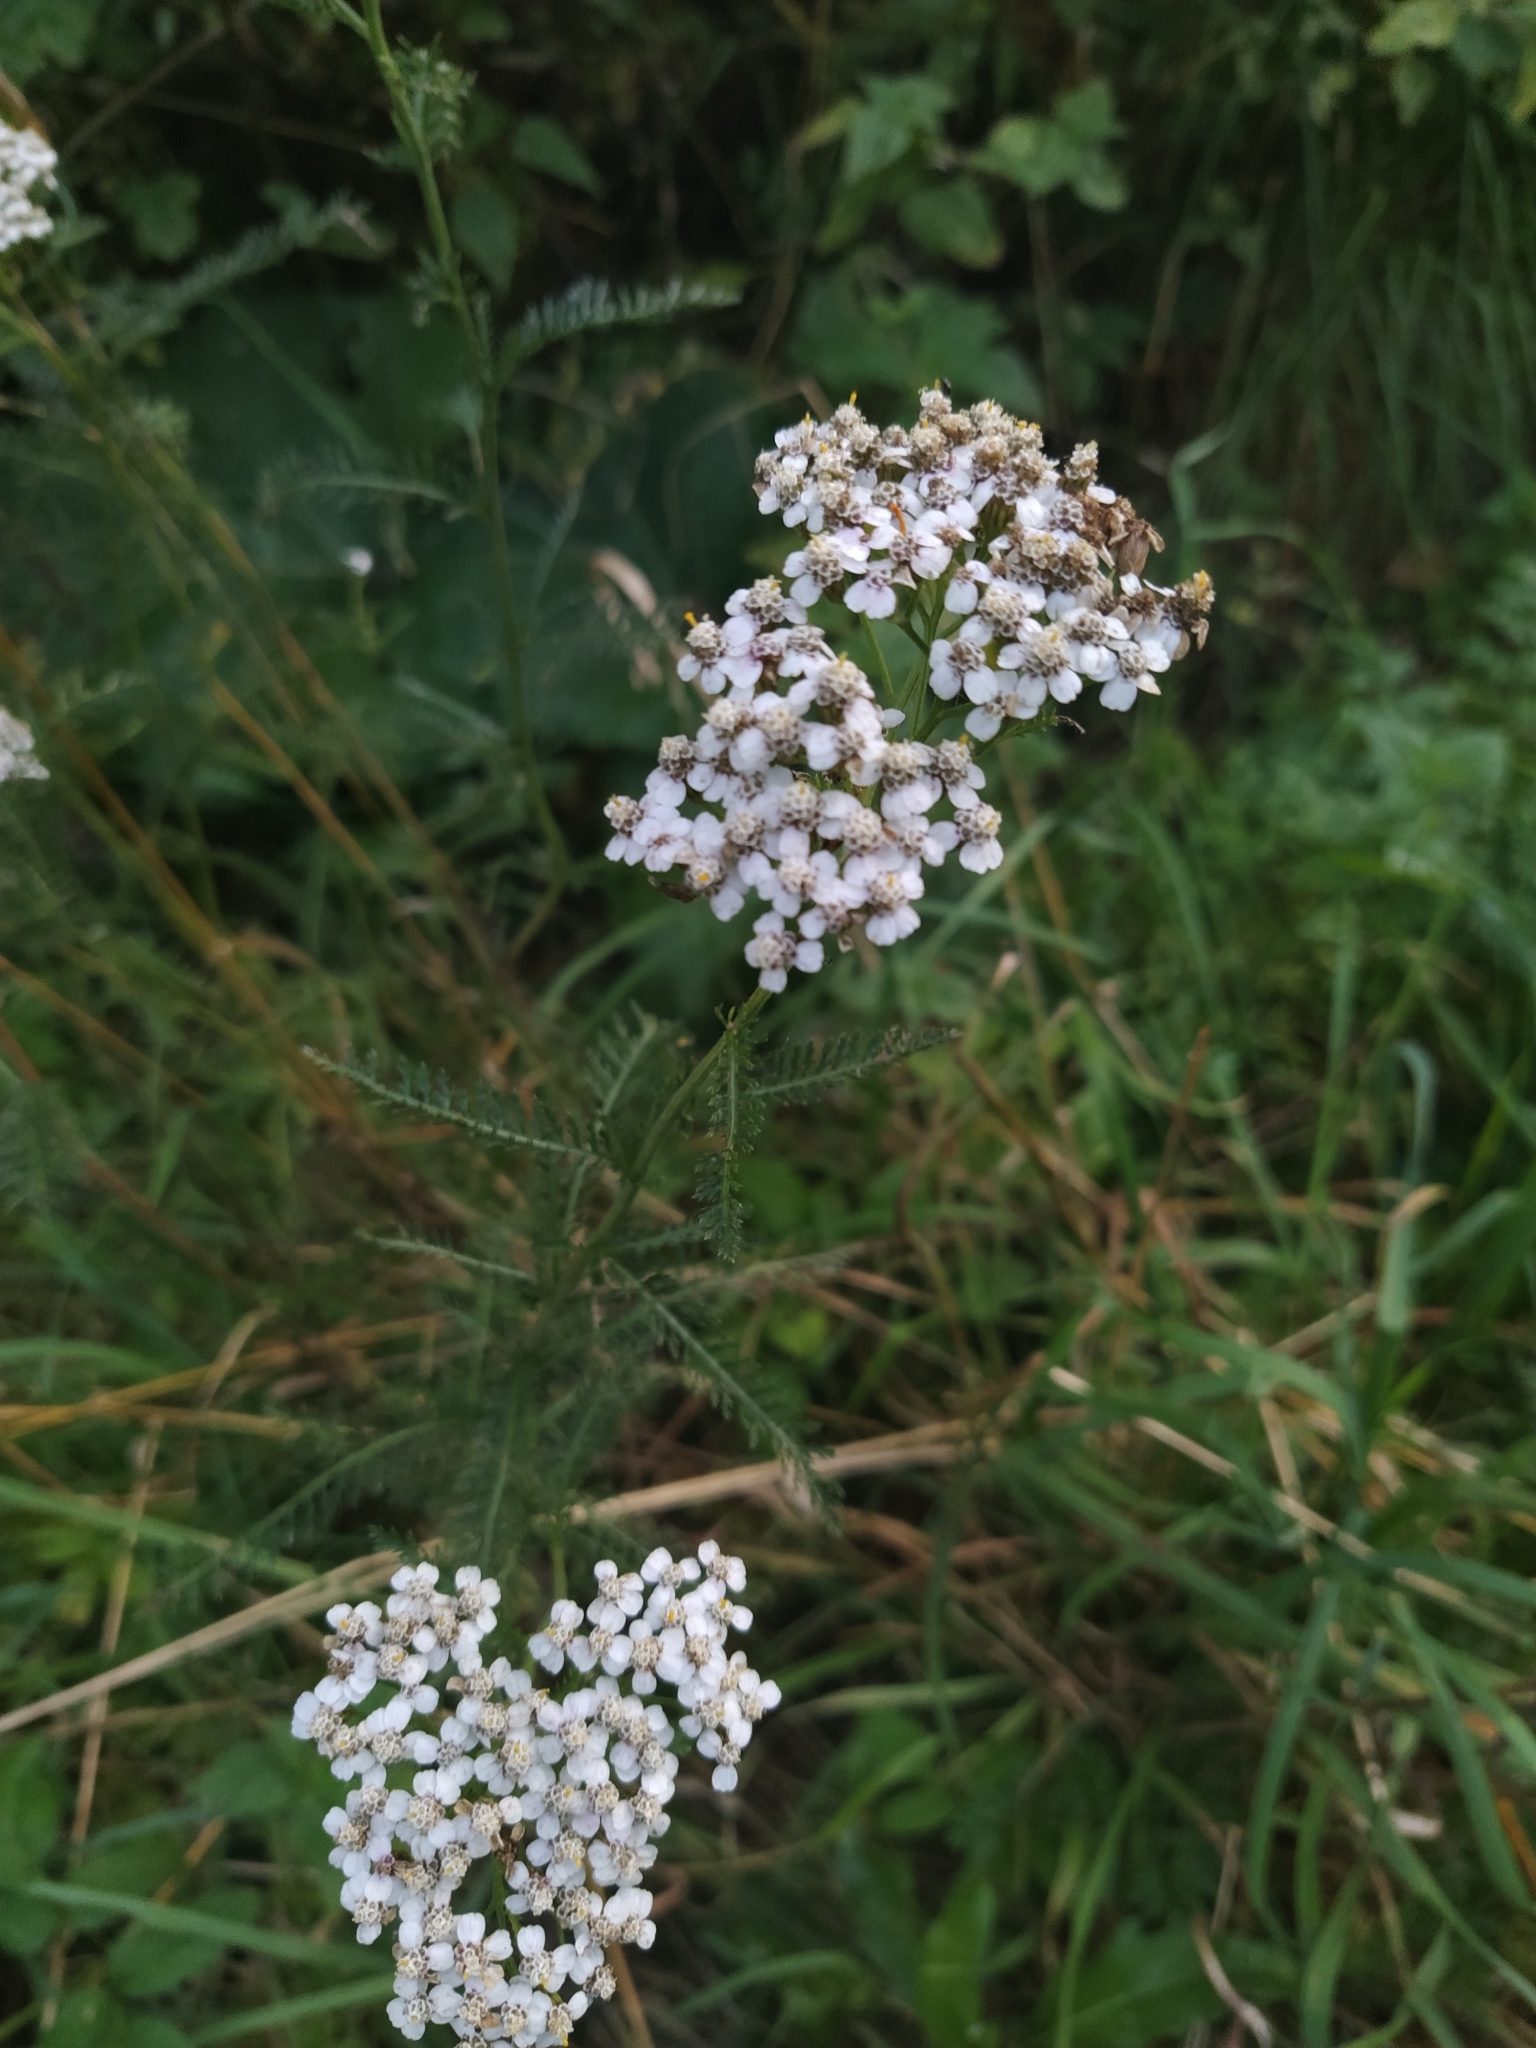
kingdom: Plantae
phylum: Tracheophyta
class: Magnoliopsida
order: Asterales
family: Asteraceae
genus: Achillea
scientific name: Achillea millefolium
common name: Yarrow
